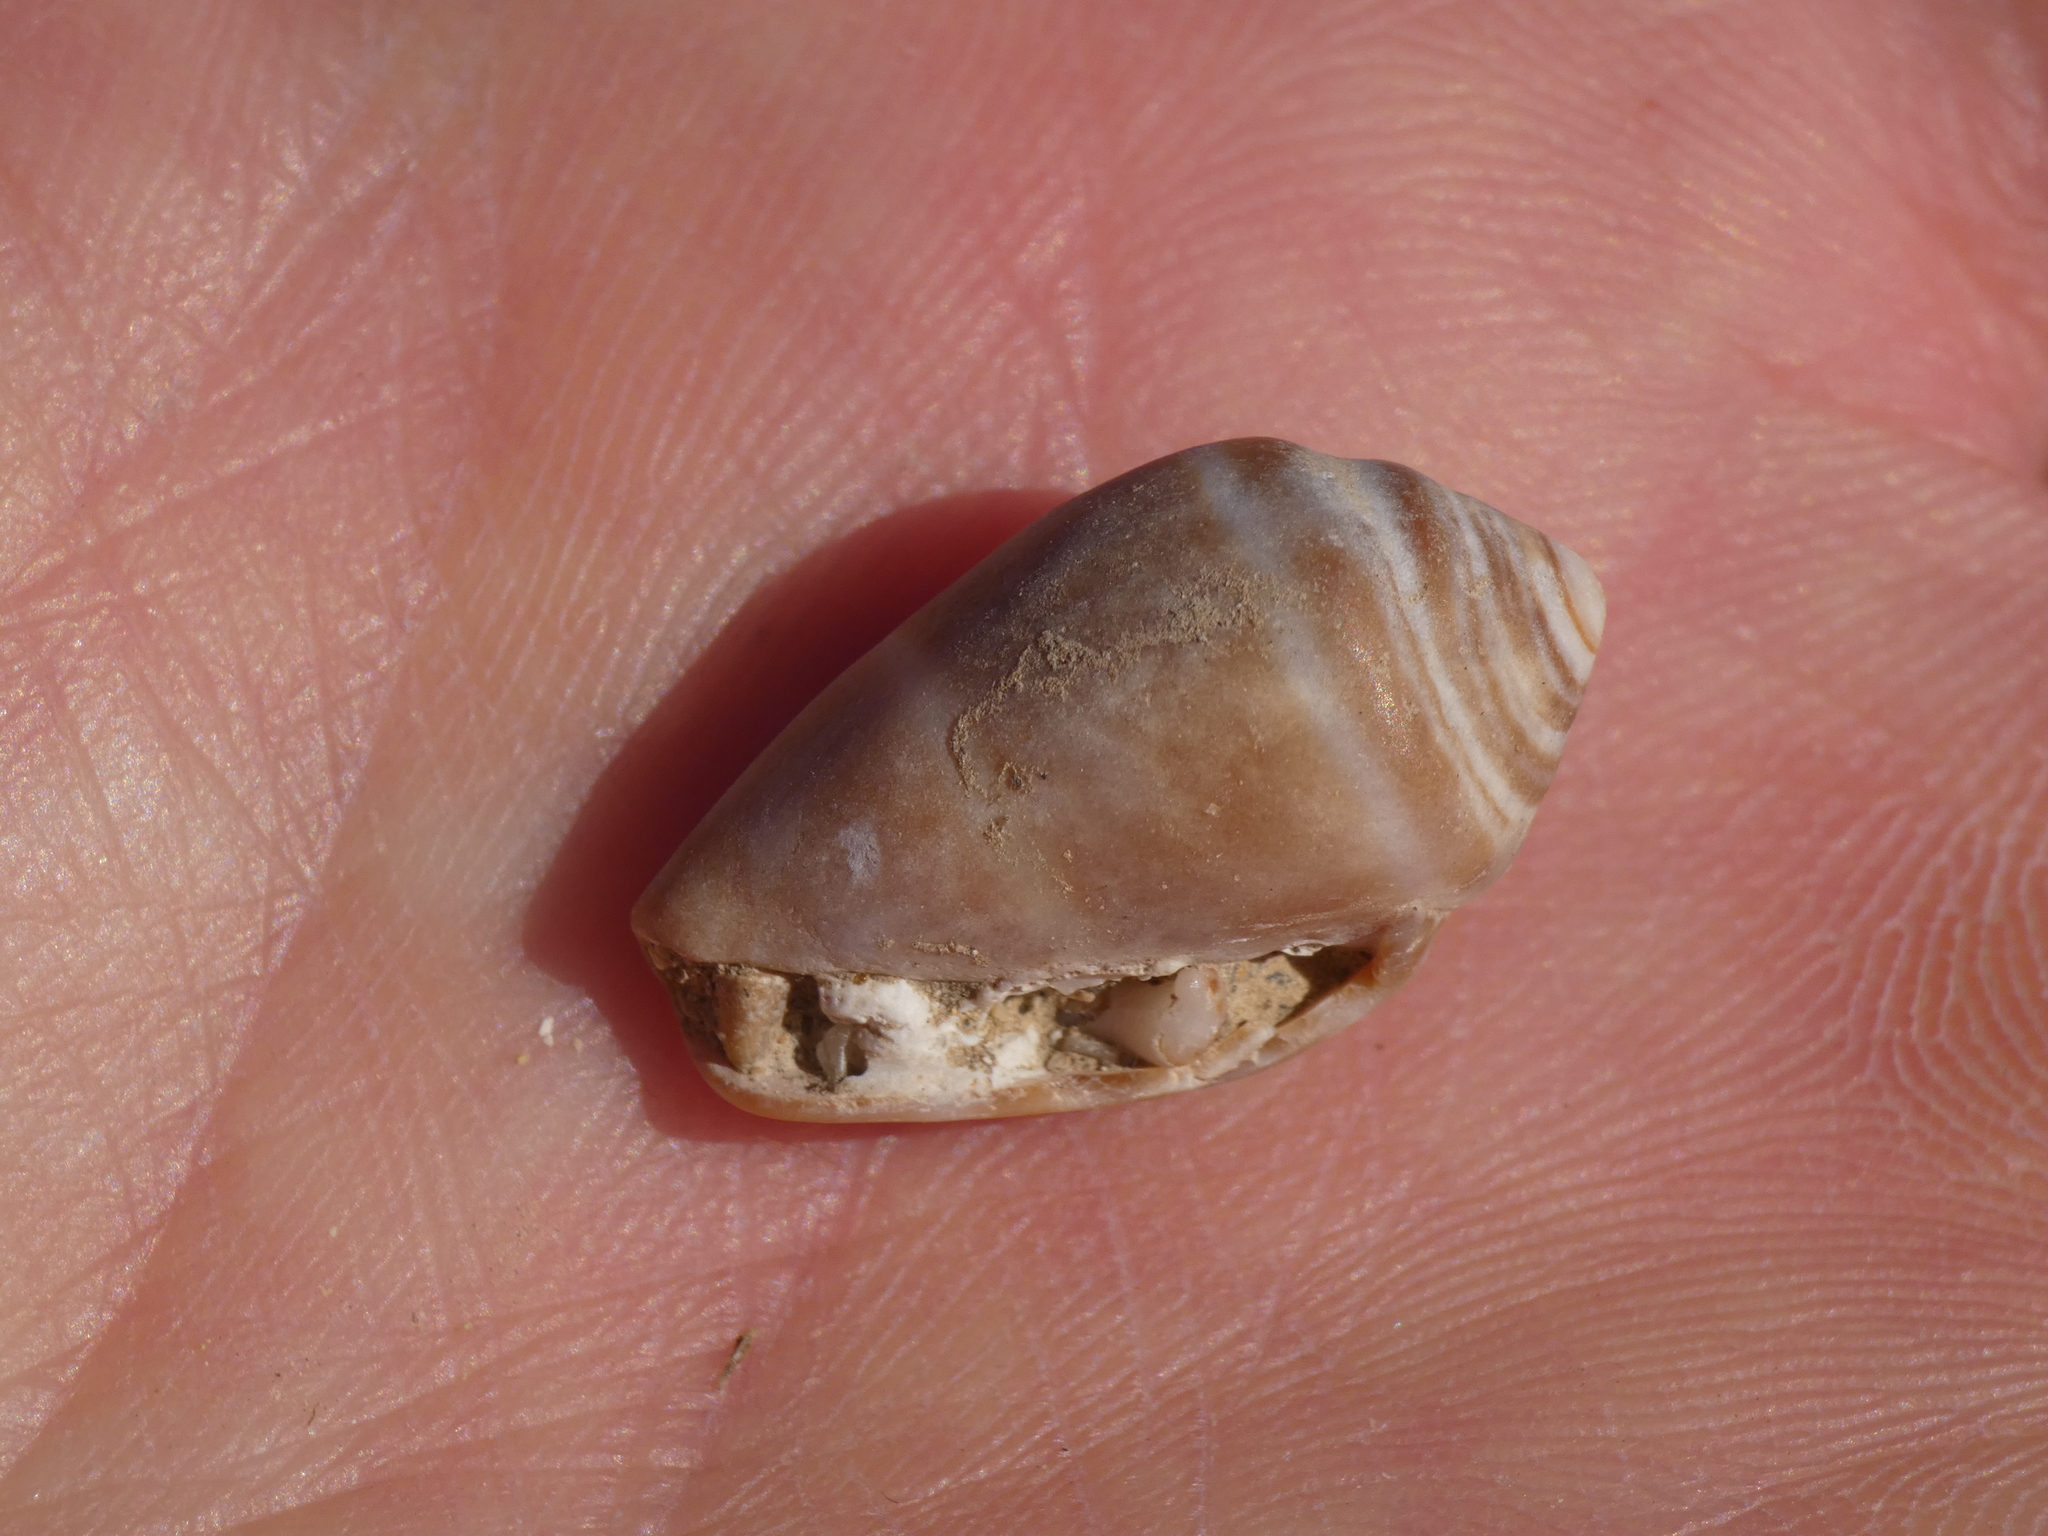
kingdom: Animalia
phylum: Mollusca
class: Gastropoda
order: Neogastropoda
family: Conidae
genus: Conus
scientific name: Conus ventricosus
